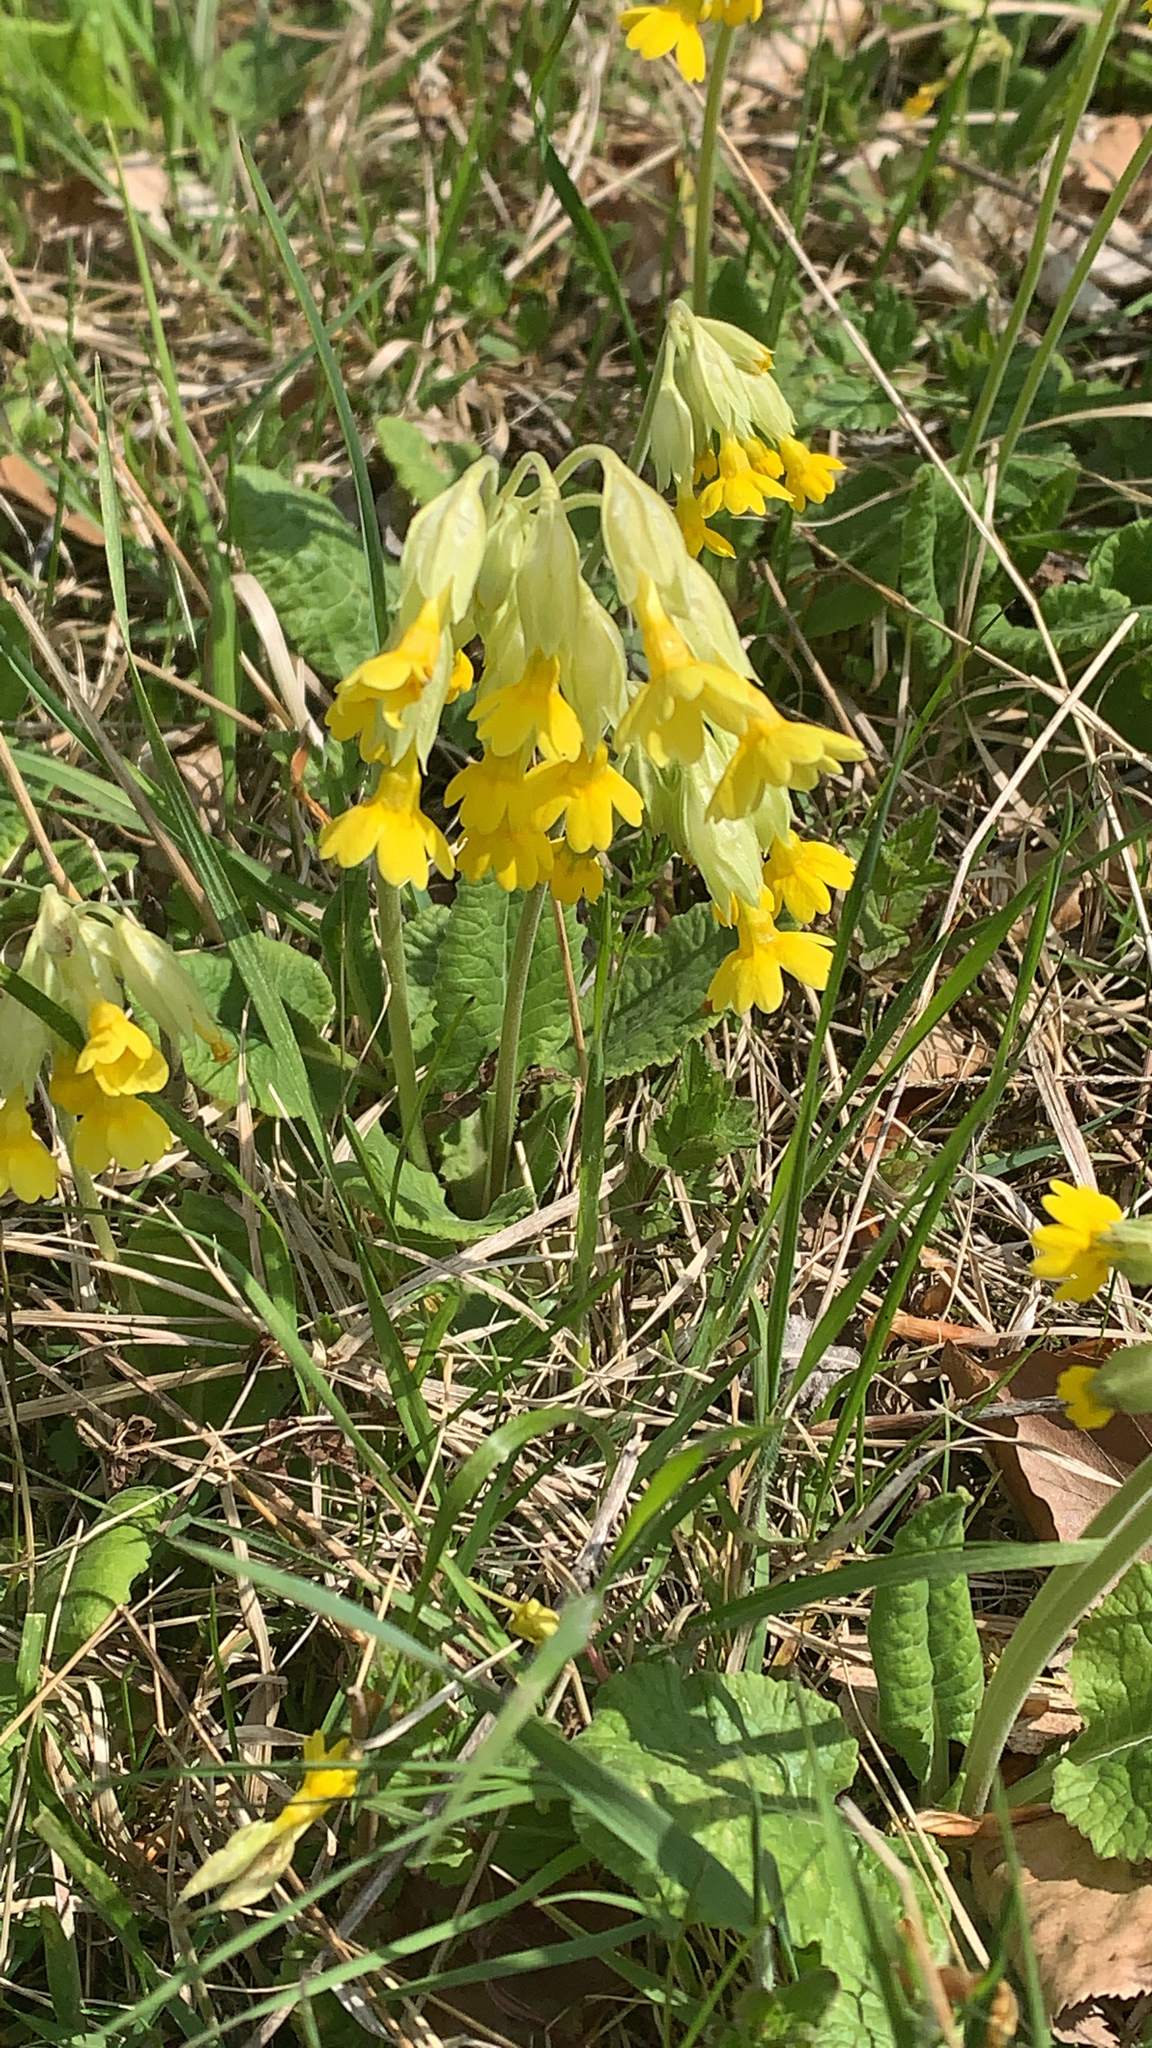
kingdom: Plantae
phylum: Tracheophyta
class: Magnoliopsida
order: Ericales
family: Primulaceae
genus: Primula
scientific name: Primula veris
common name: Cowslip
